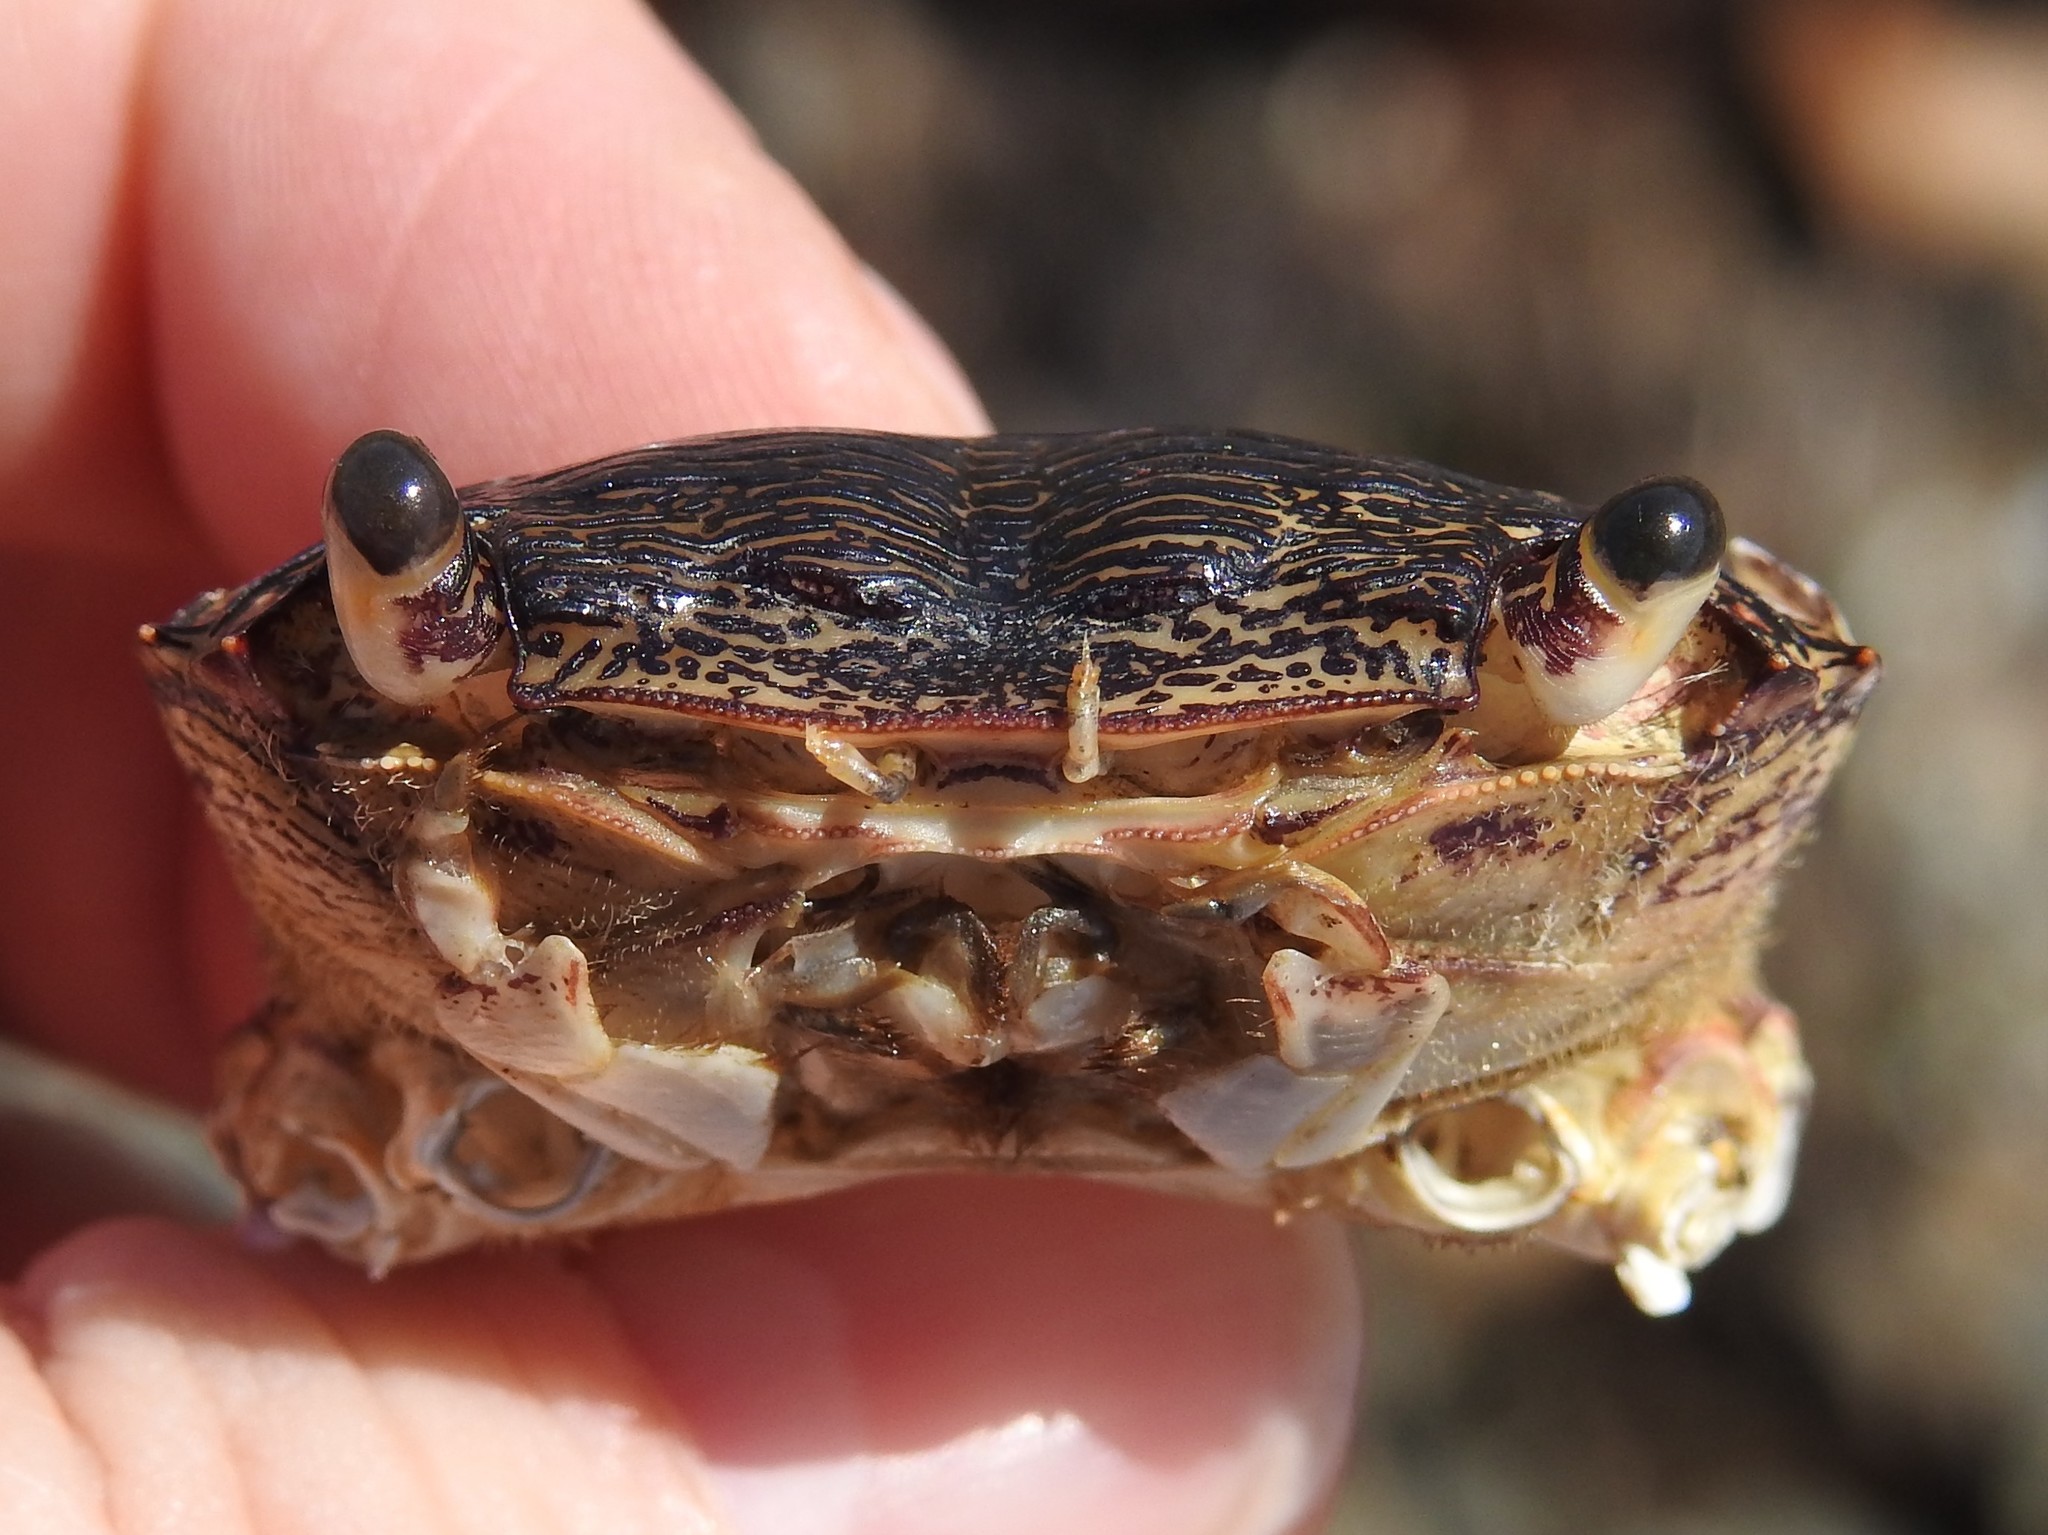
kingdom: Animalia
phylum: Arthropoda
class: Malacostraca
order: Decapoda
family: Grapsidae
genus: Pachygrapsus
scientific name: Pachygrapsus crassipes
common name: Striped shore crab
